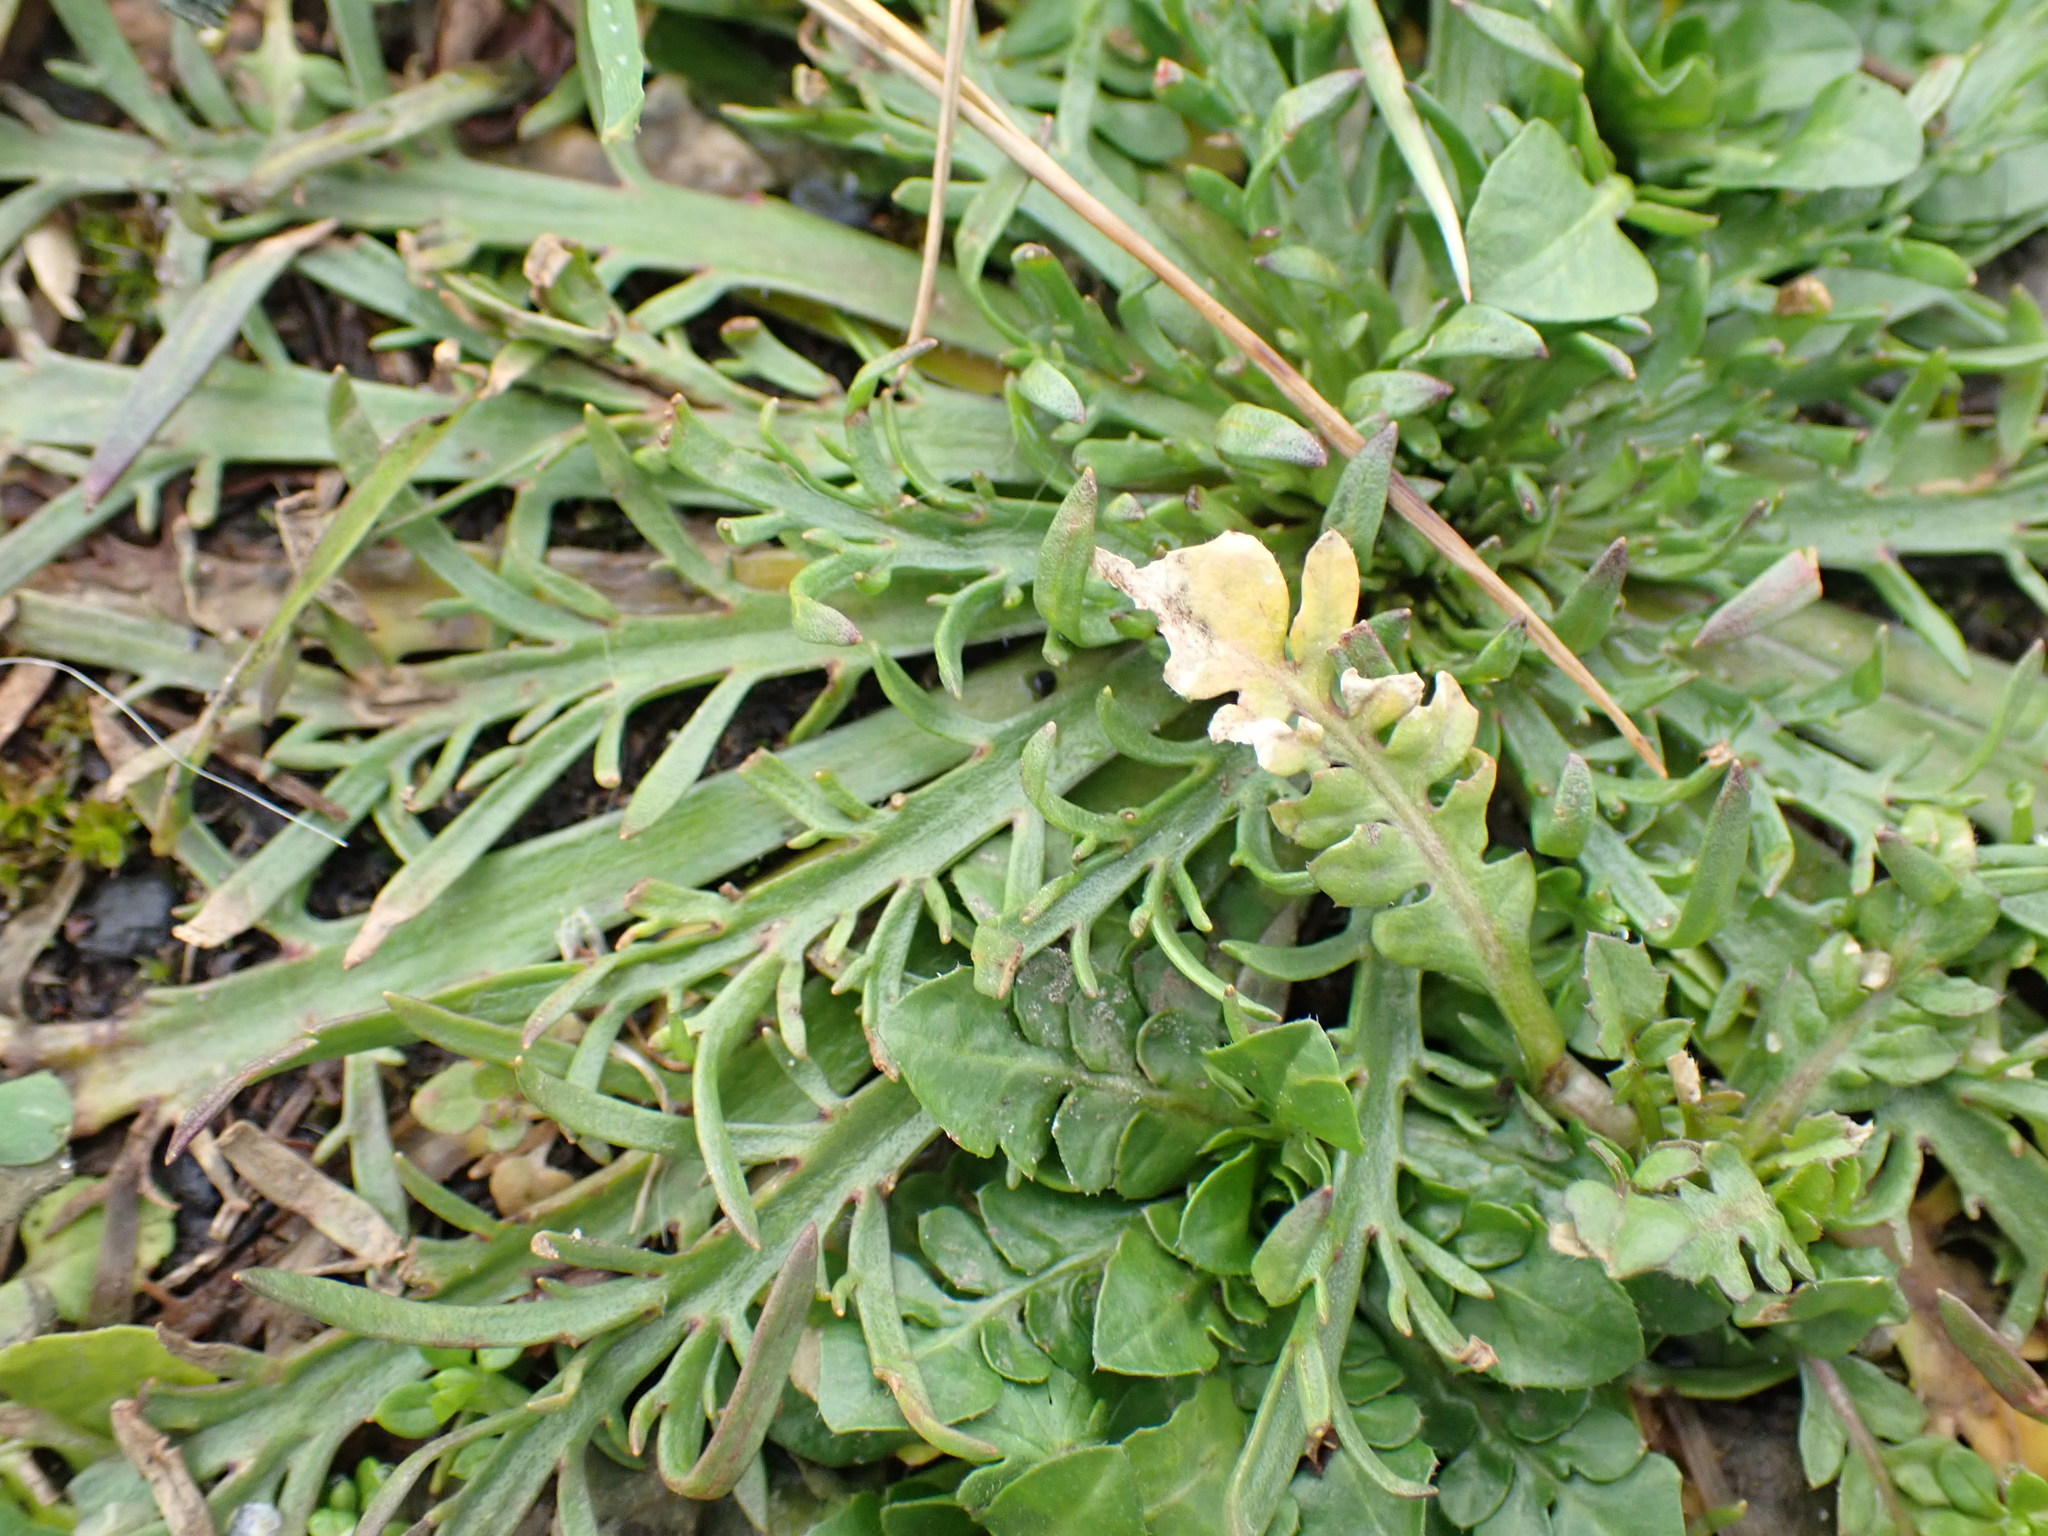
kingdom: Plantae
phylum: Tracheophyta
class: Magnoliopsida
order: Lamiales
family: Plantaginaceae
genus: Plantago
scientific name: Plantago coronopus
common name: Buck's-horn plantain
